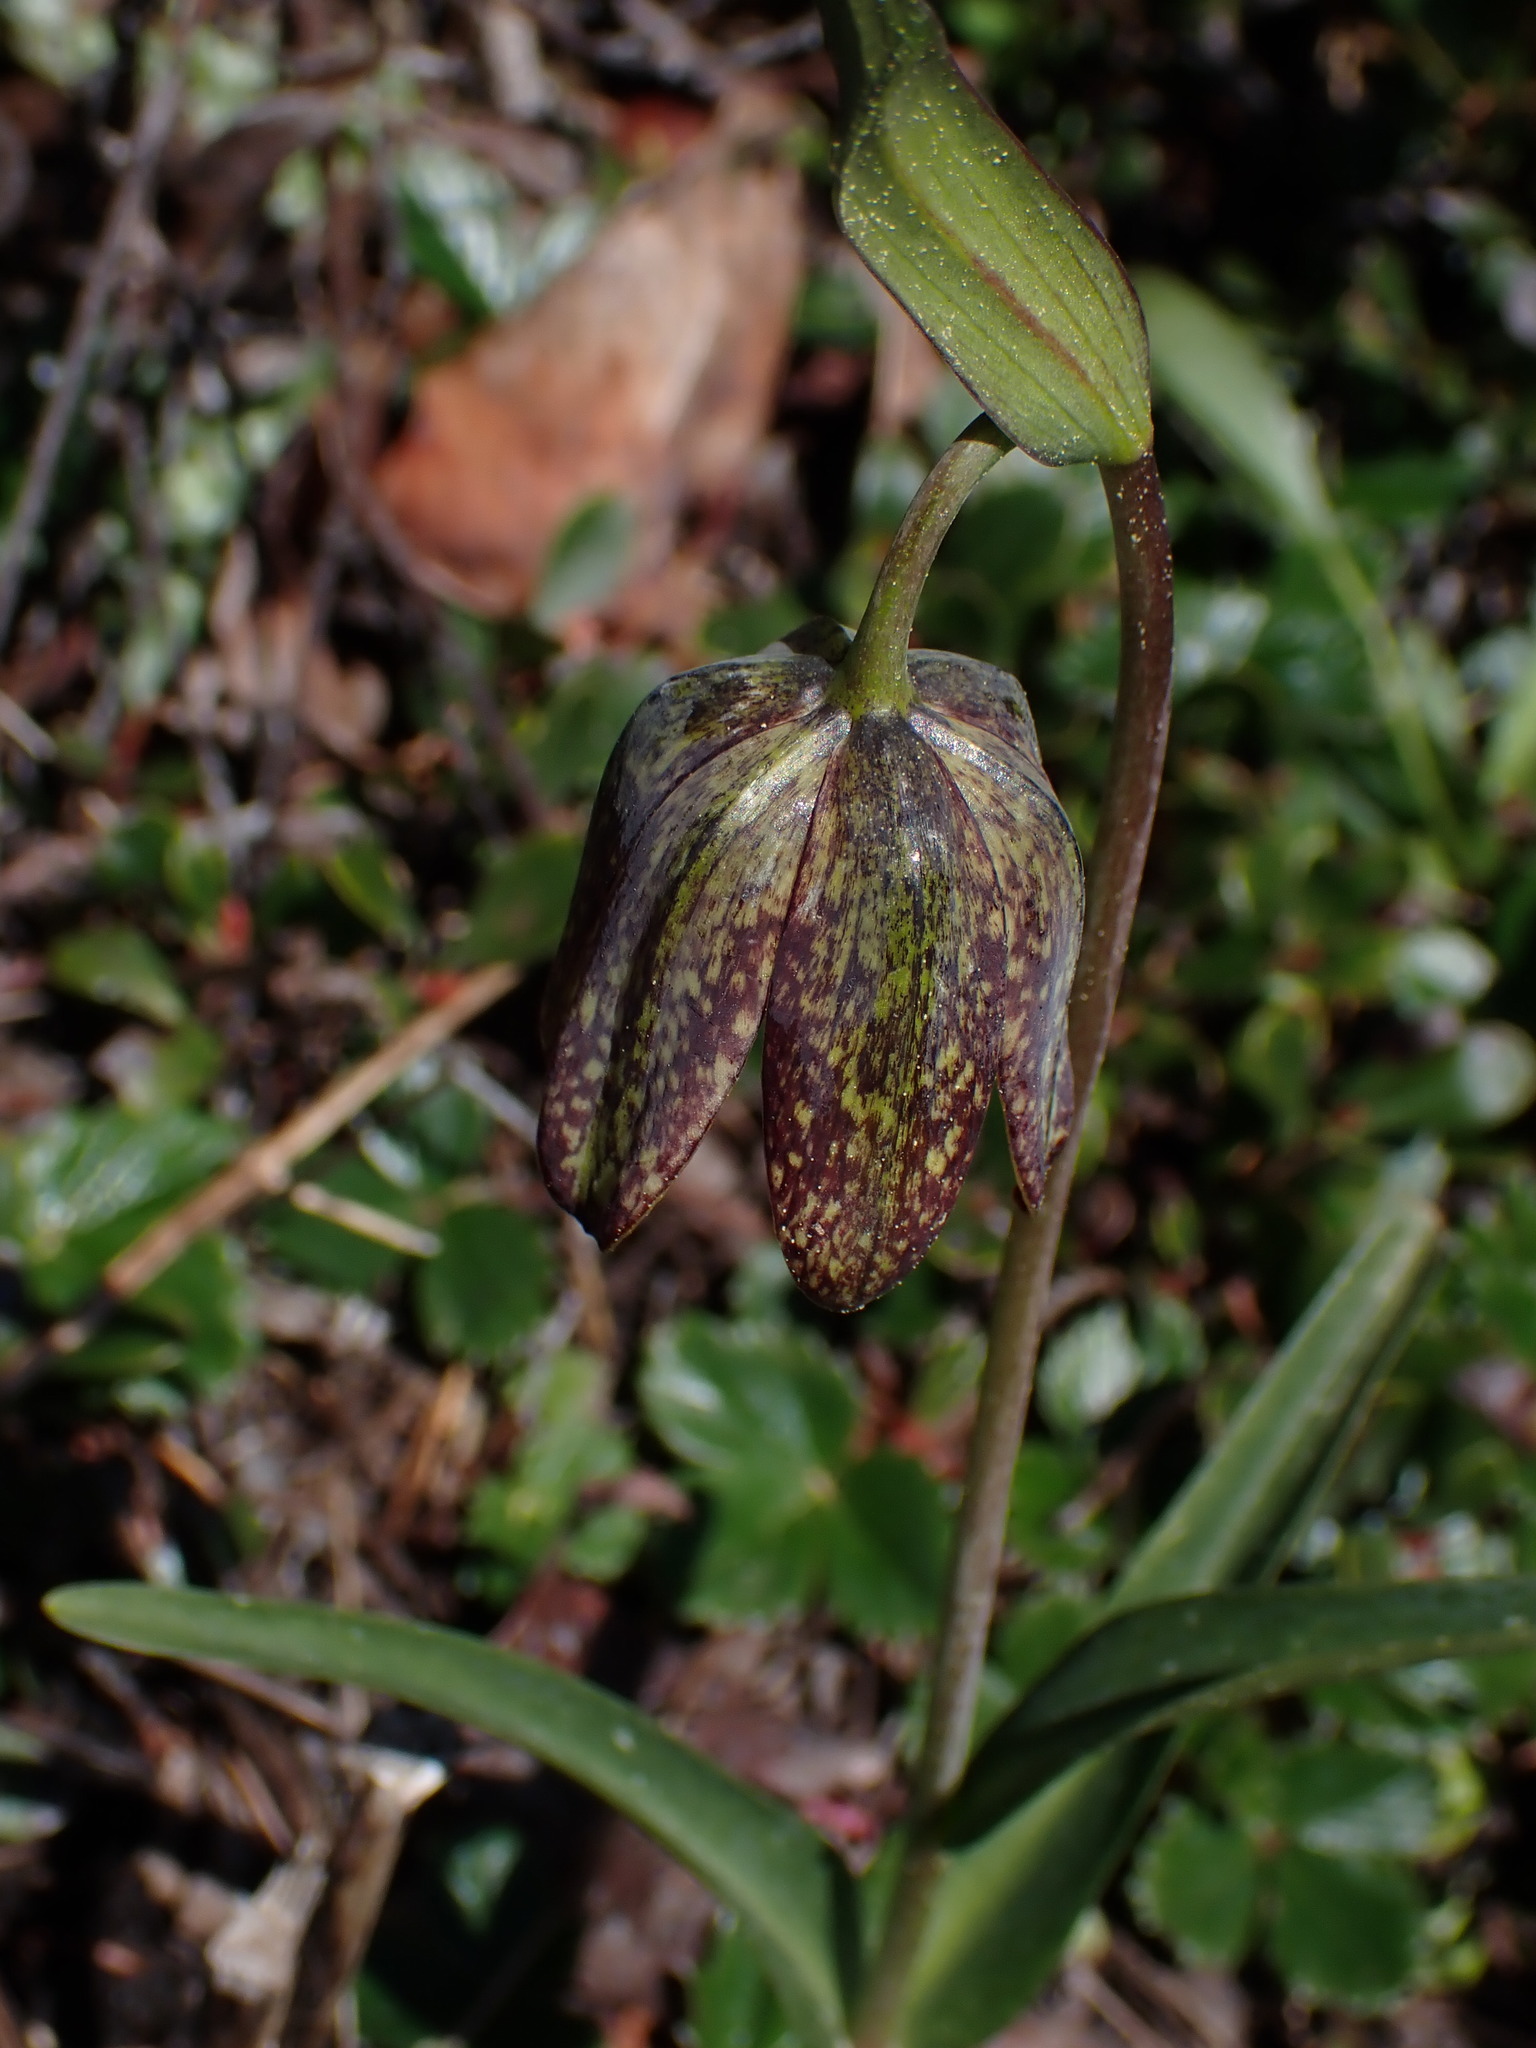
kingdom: Plantae
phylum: Tracheophyta
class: Liliopsida
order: Liliales
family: Liliaceae
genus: Fritillaria
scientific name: Fritillaria affinis
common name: Ojai fritillary
